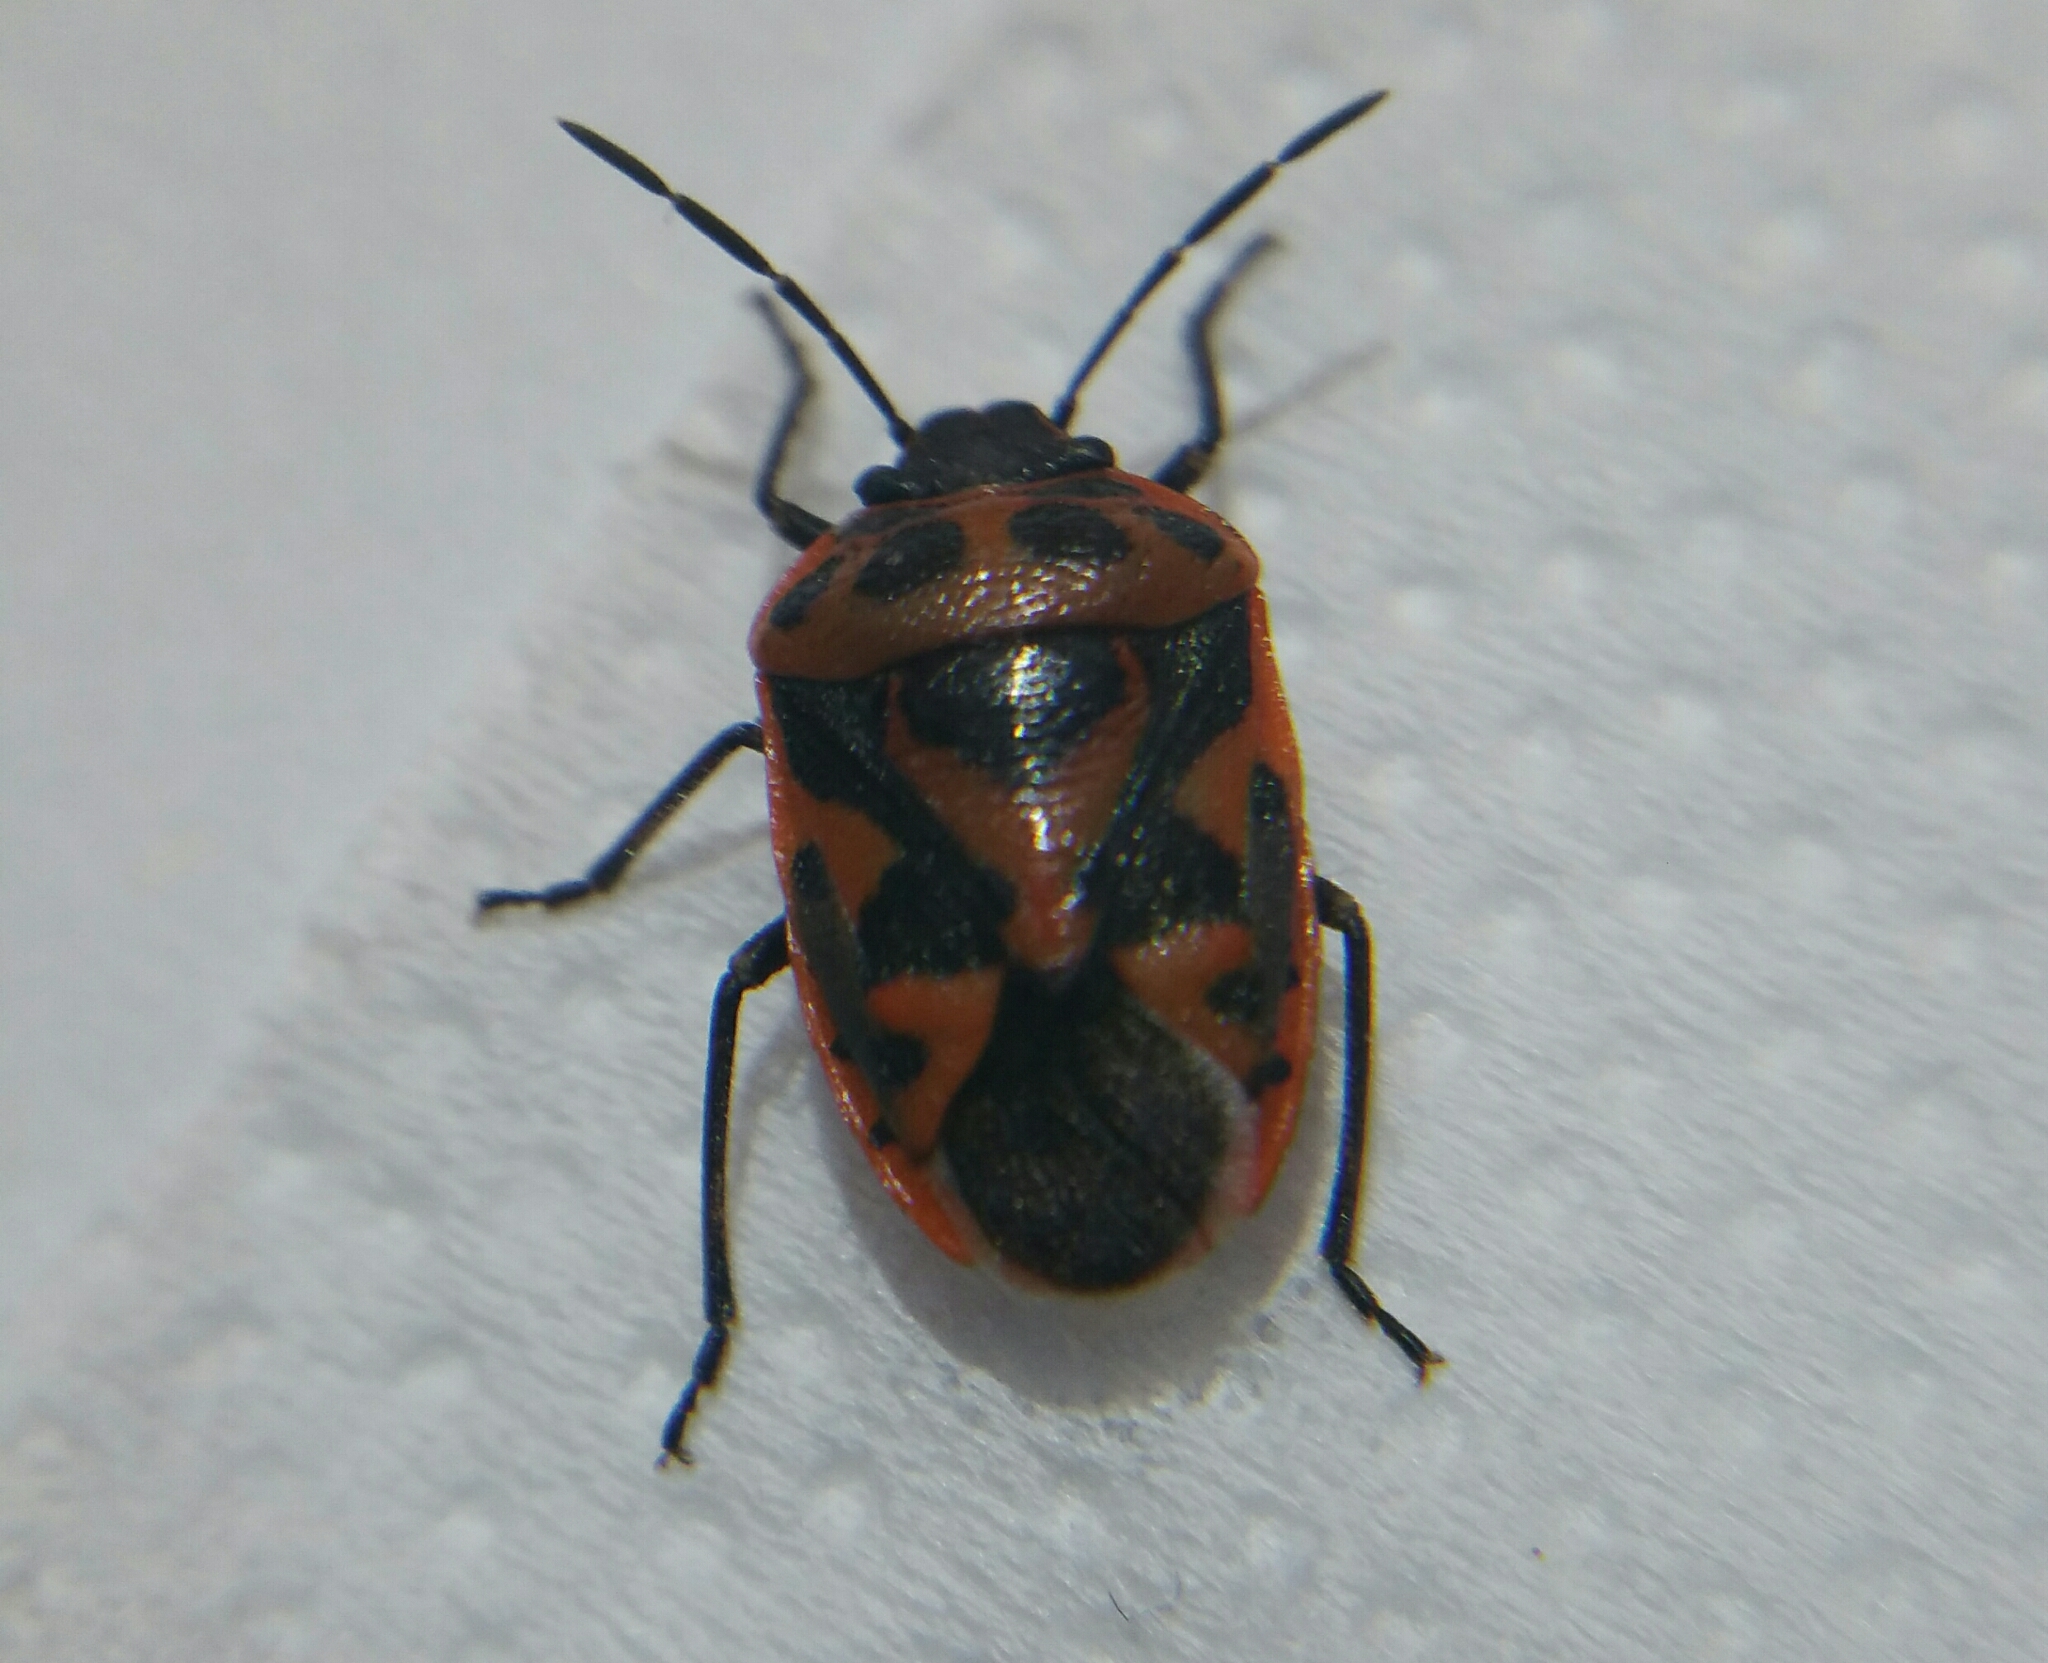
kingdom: Animalia
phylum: Arthropoda
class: Insecta
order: Hemiptera
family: Pentatomidae
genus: Eurydema
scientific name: Eurydema ornata
